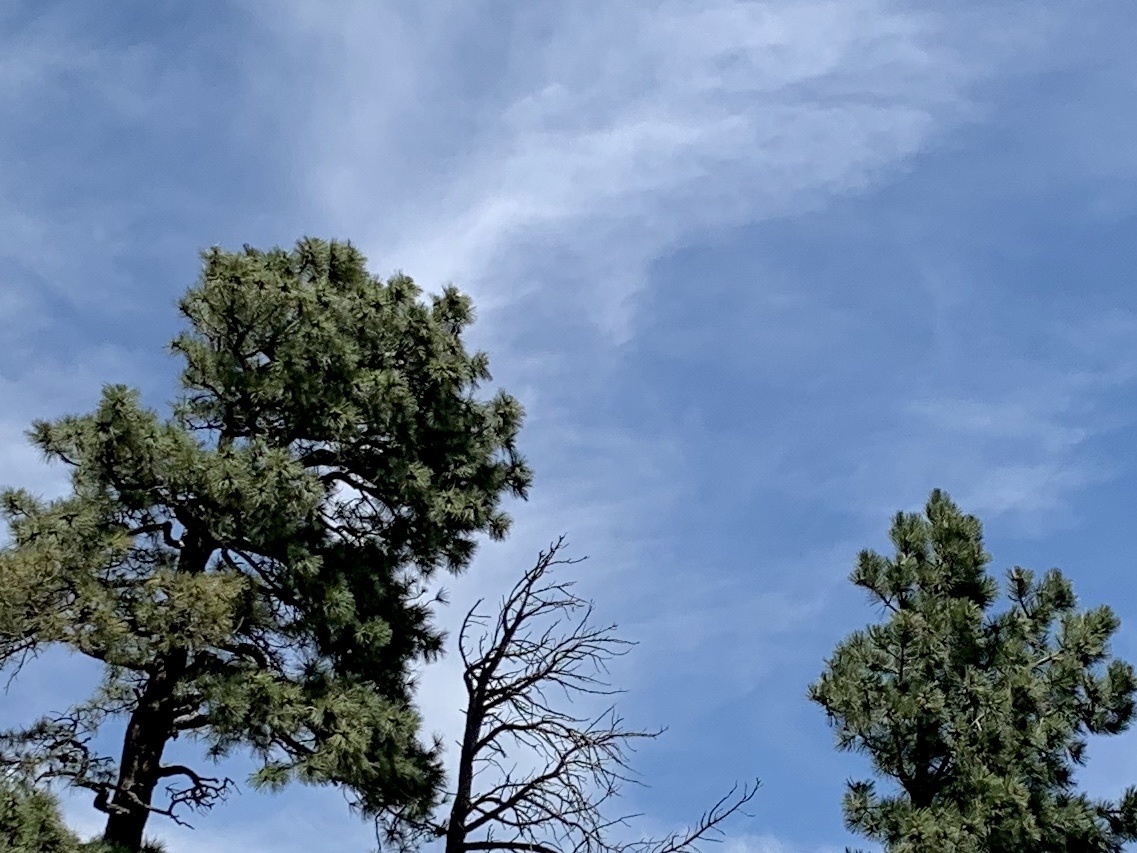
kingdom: Plantae
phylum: Tracheophyta
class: Pinopsida
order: Pinales
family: Pinaceae
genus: Pinus
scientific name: Pinus ponderosa
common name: Western yellow-pine
